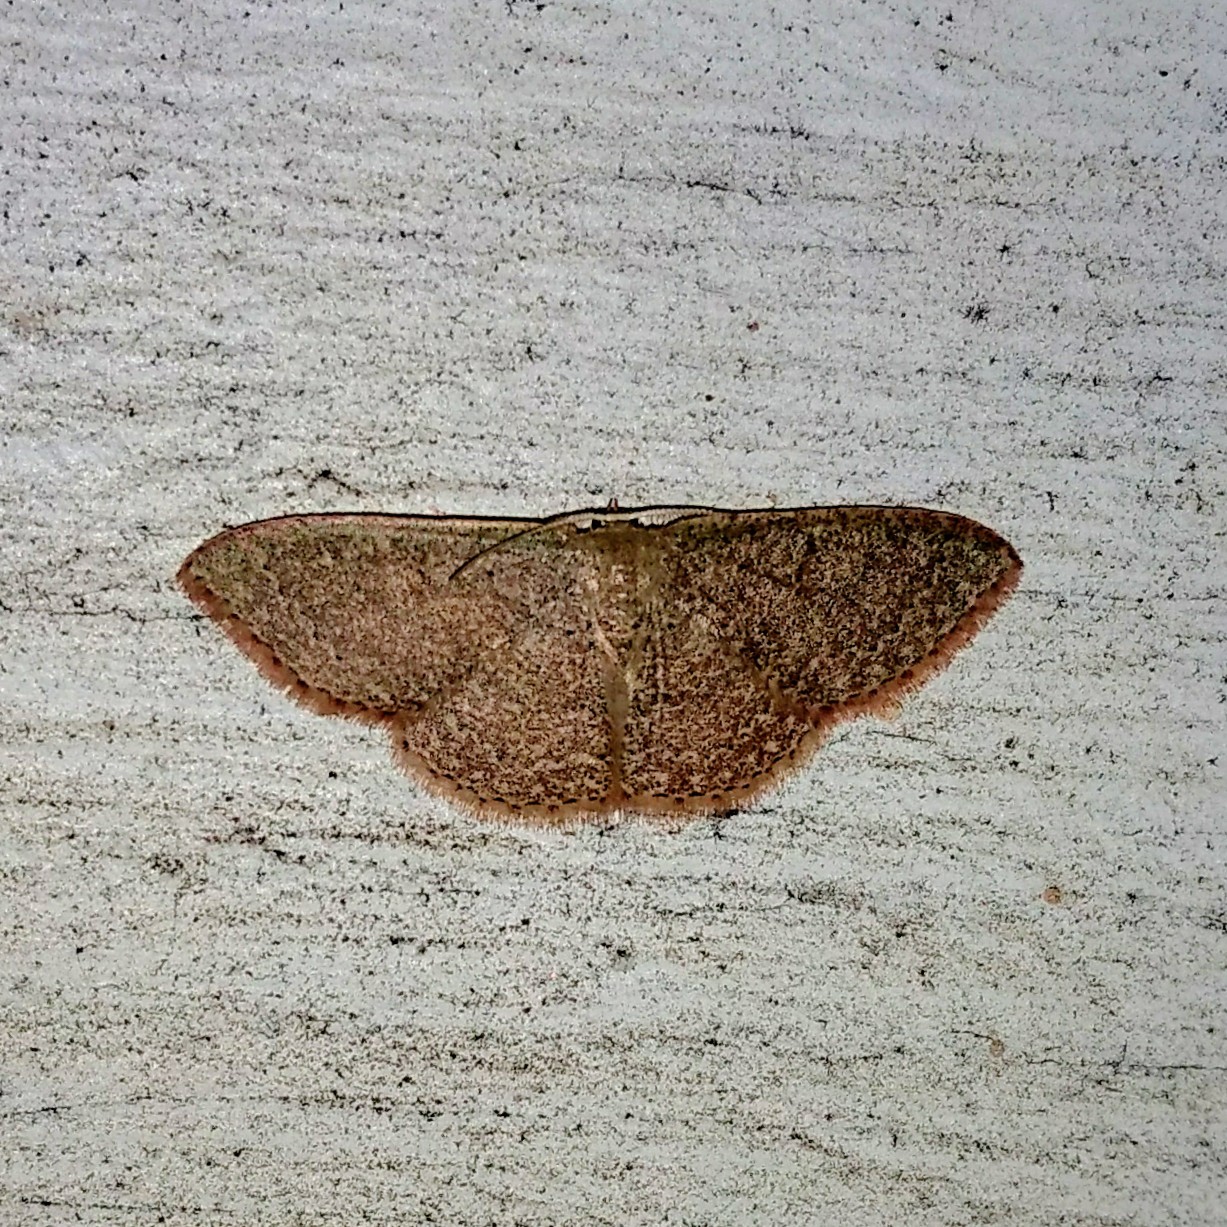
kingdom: Animalia
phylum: Arthropoda
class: Insecta
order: Lepidoptera
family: Geometridae
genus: Pleuroprucha
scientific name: Pleuroprucha insulsaria
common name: Common tan wave
